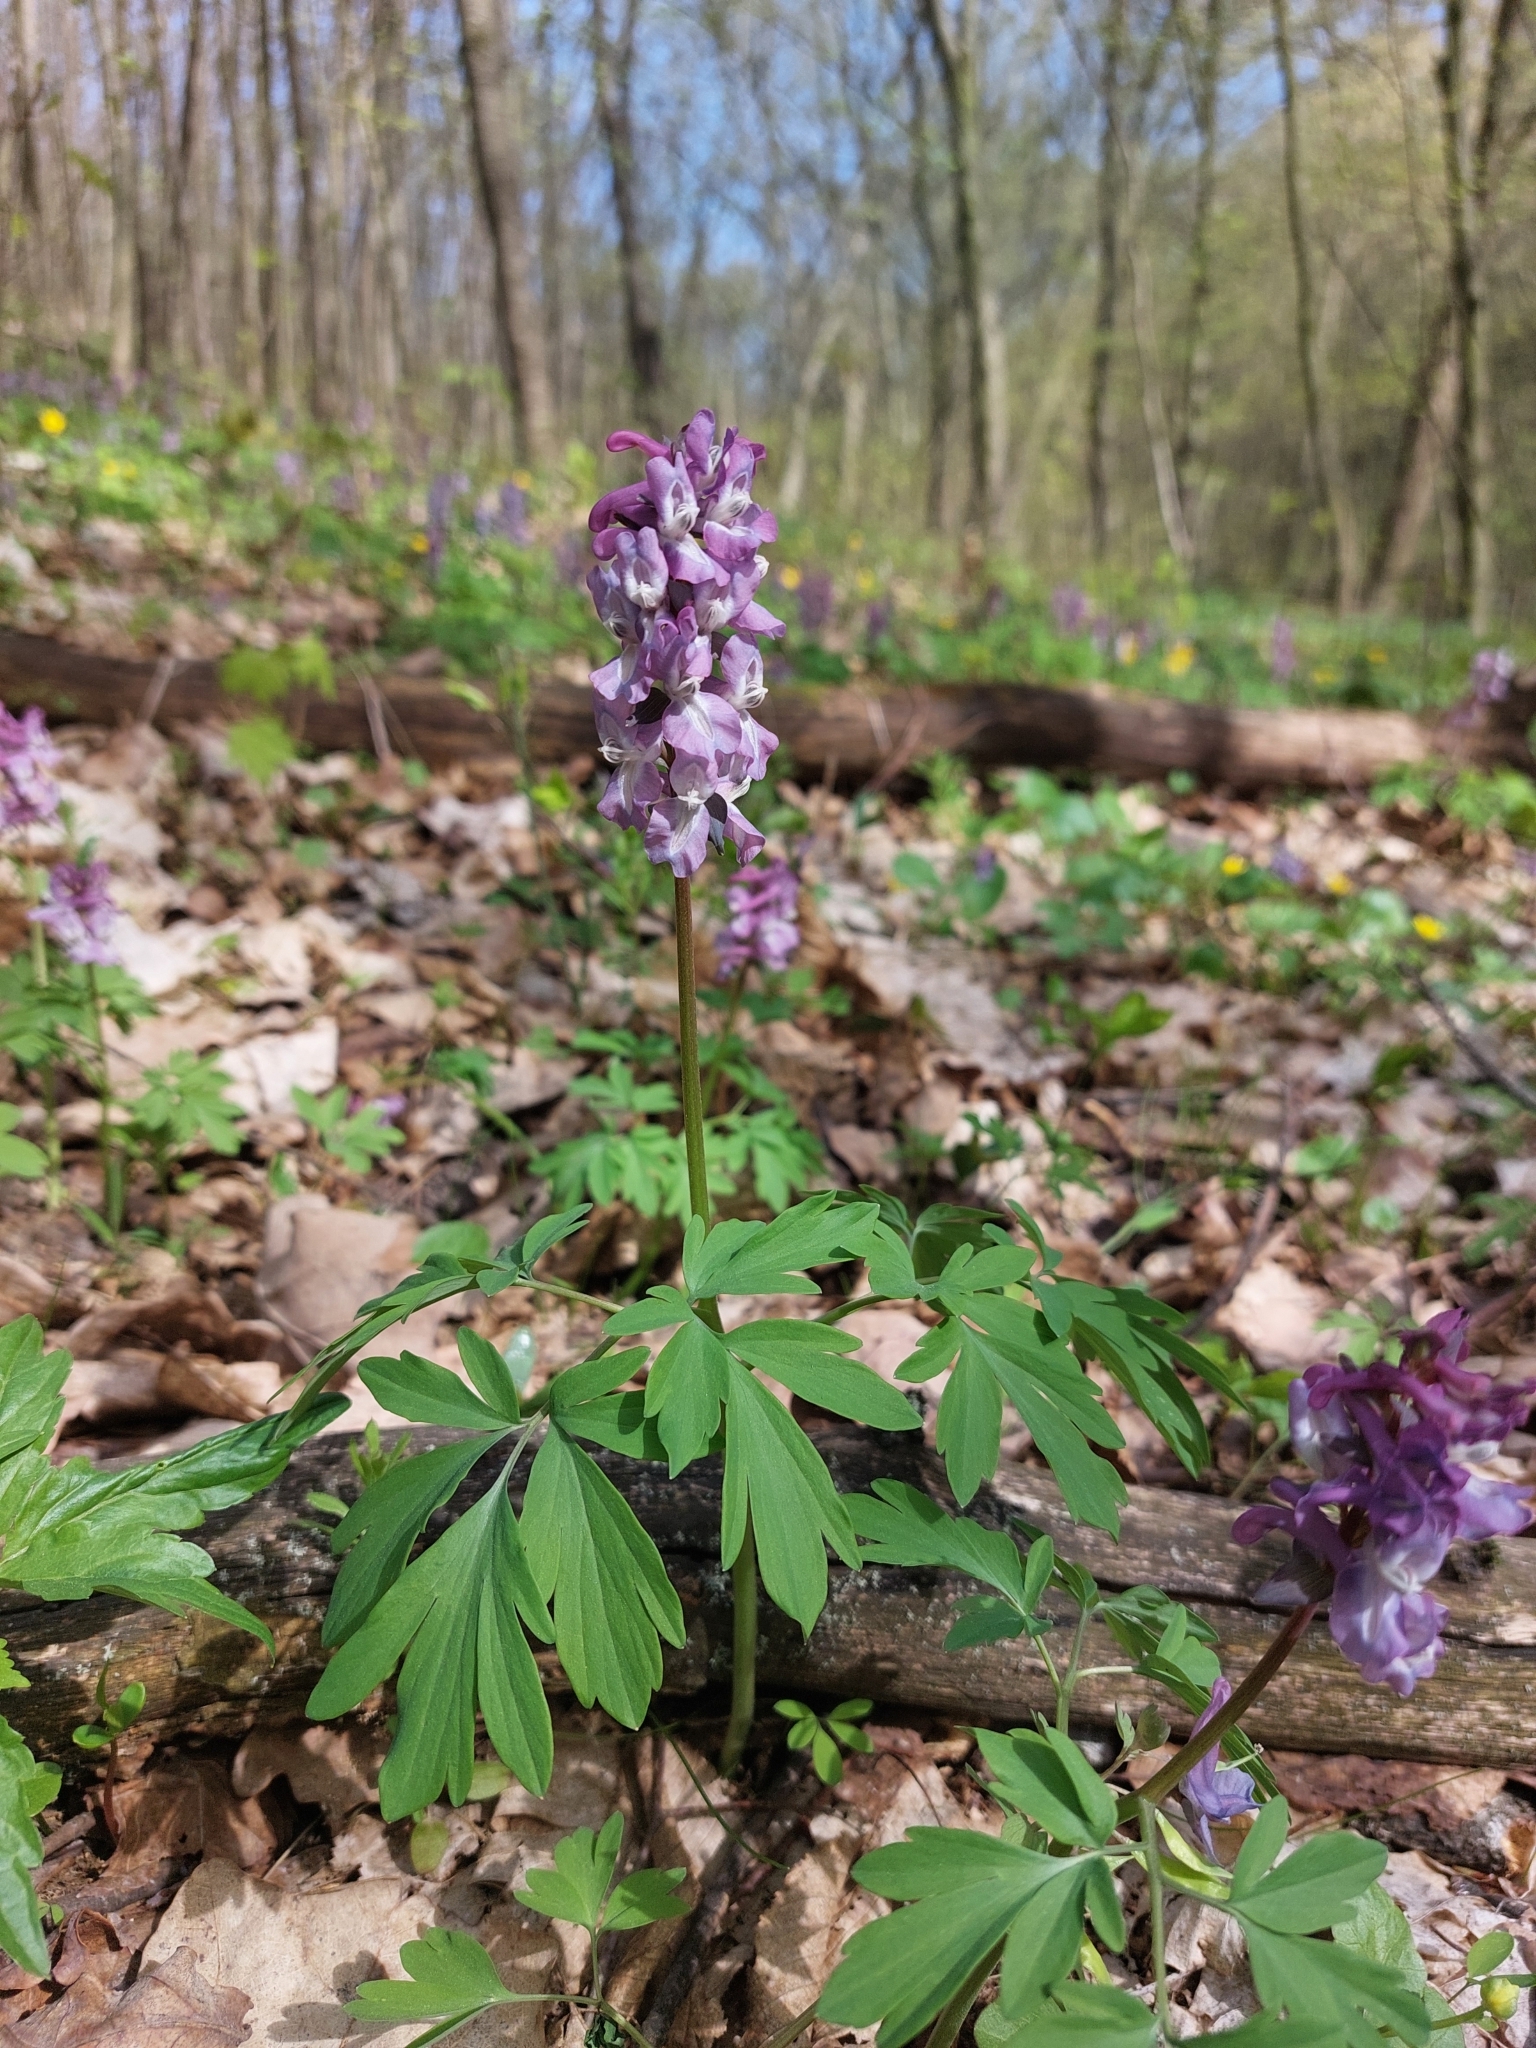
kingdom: Plantae
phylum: Tracheophyta
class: Magnoliopsida
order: Ranunculales
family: Papaveraceae
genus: Corydalis
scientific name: Corydalis cava
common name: Hollowroot
